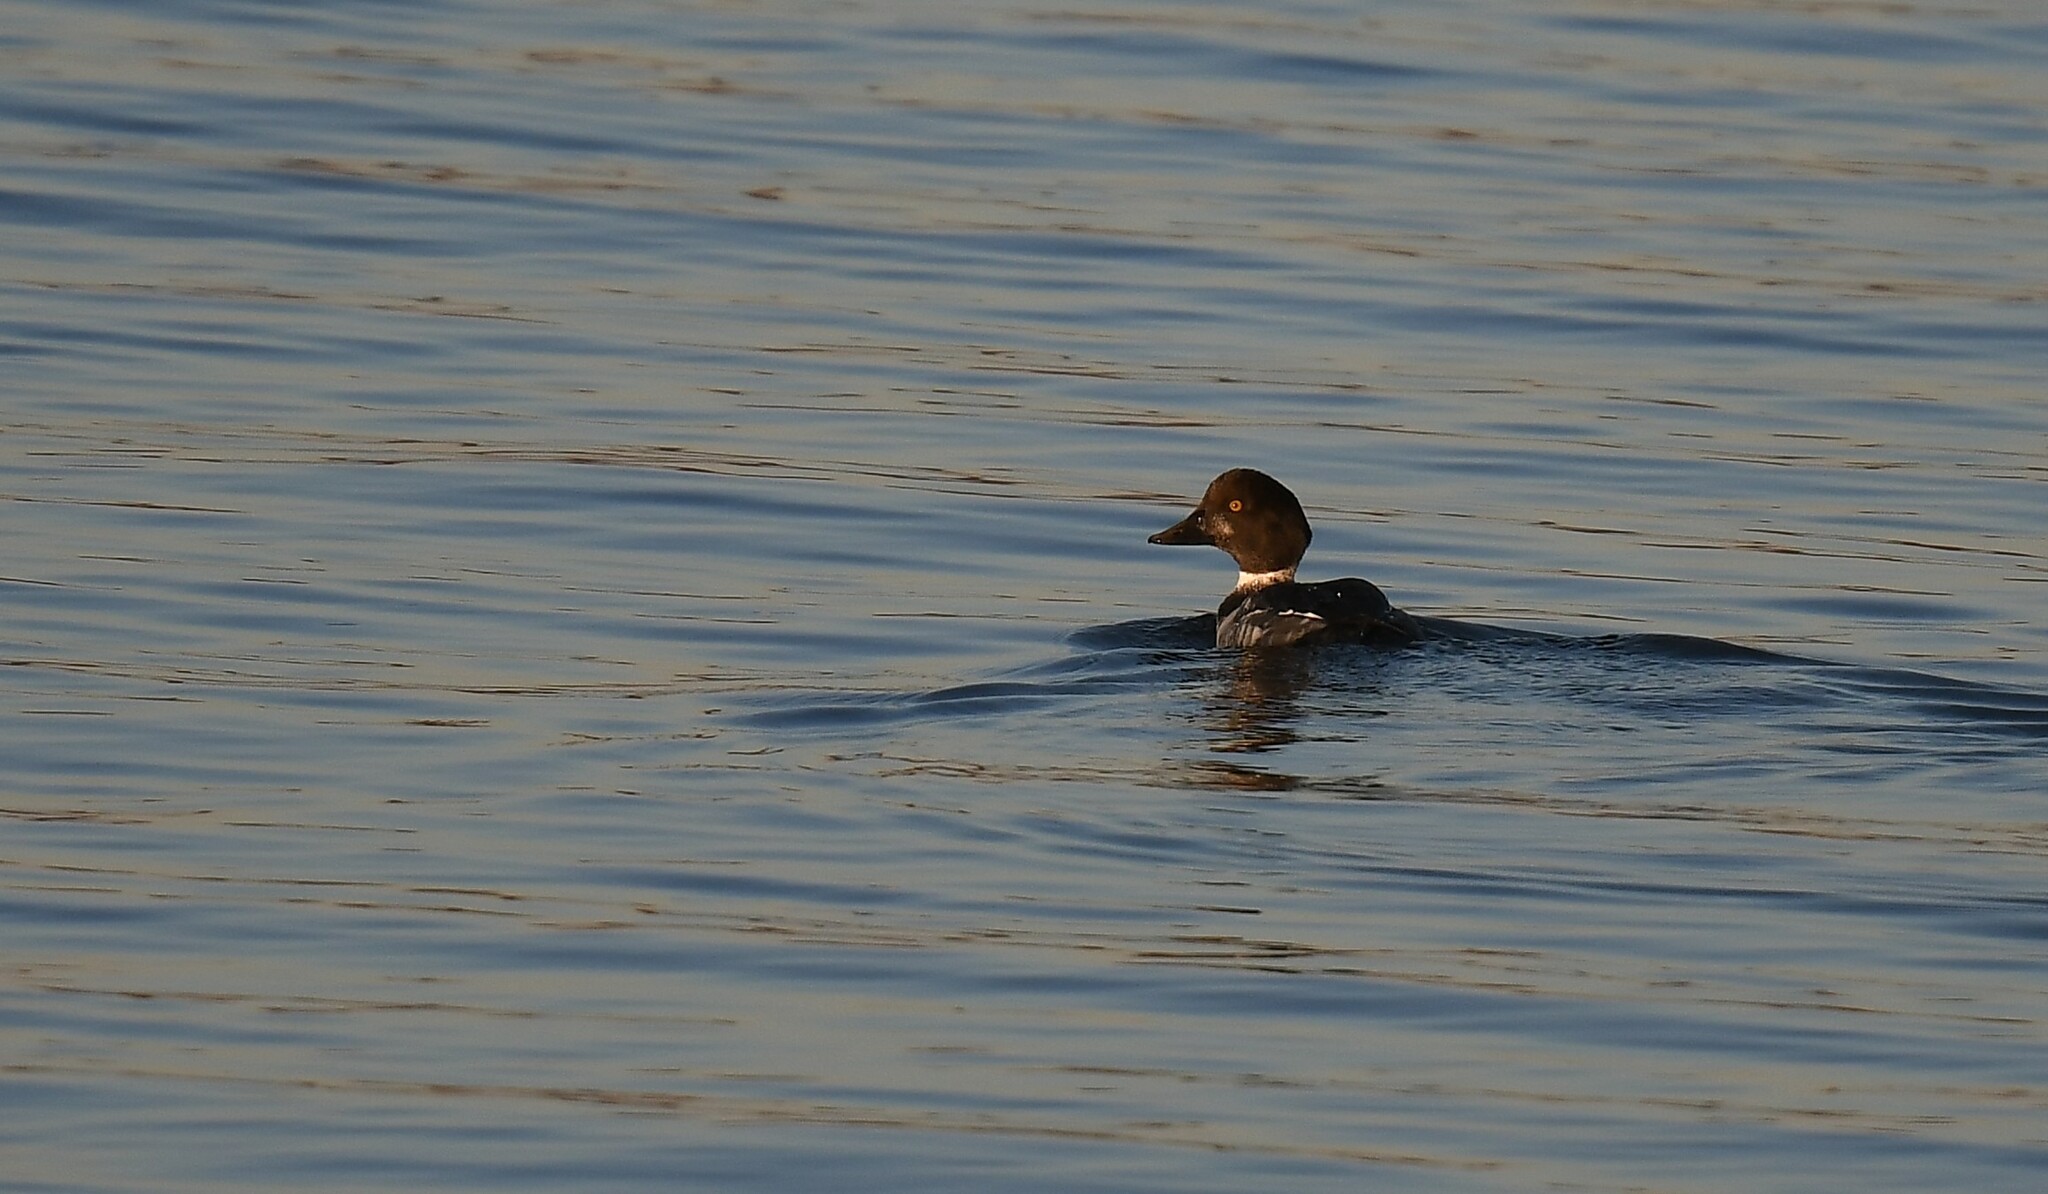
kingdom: Animalia
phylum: Chordata
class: Aves
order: Anseriformes
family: Anatidae
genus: Bucephala
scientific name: Bucephala clangula
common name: Common goldeneye
